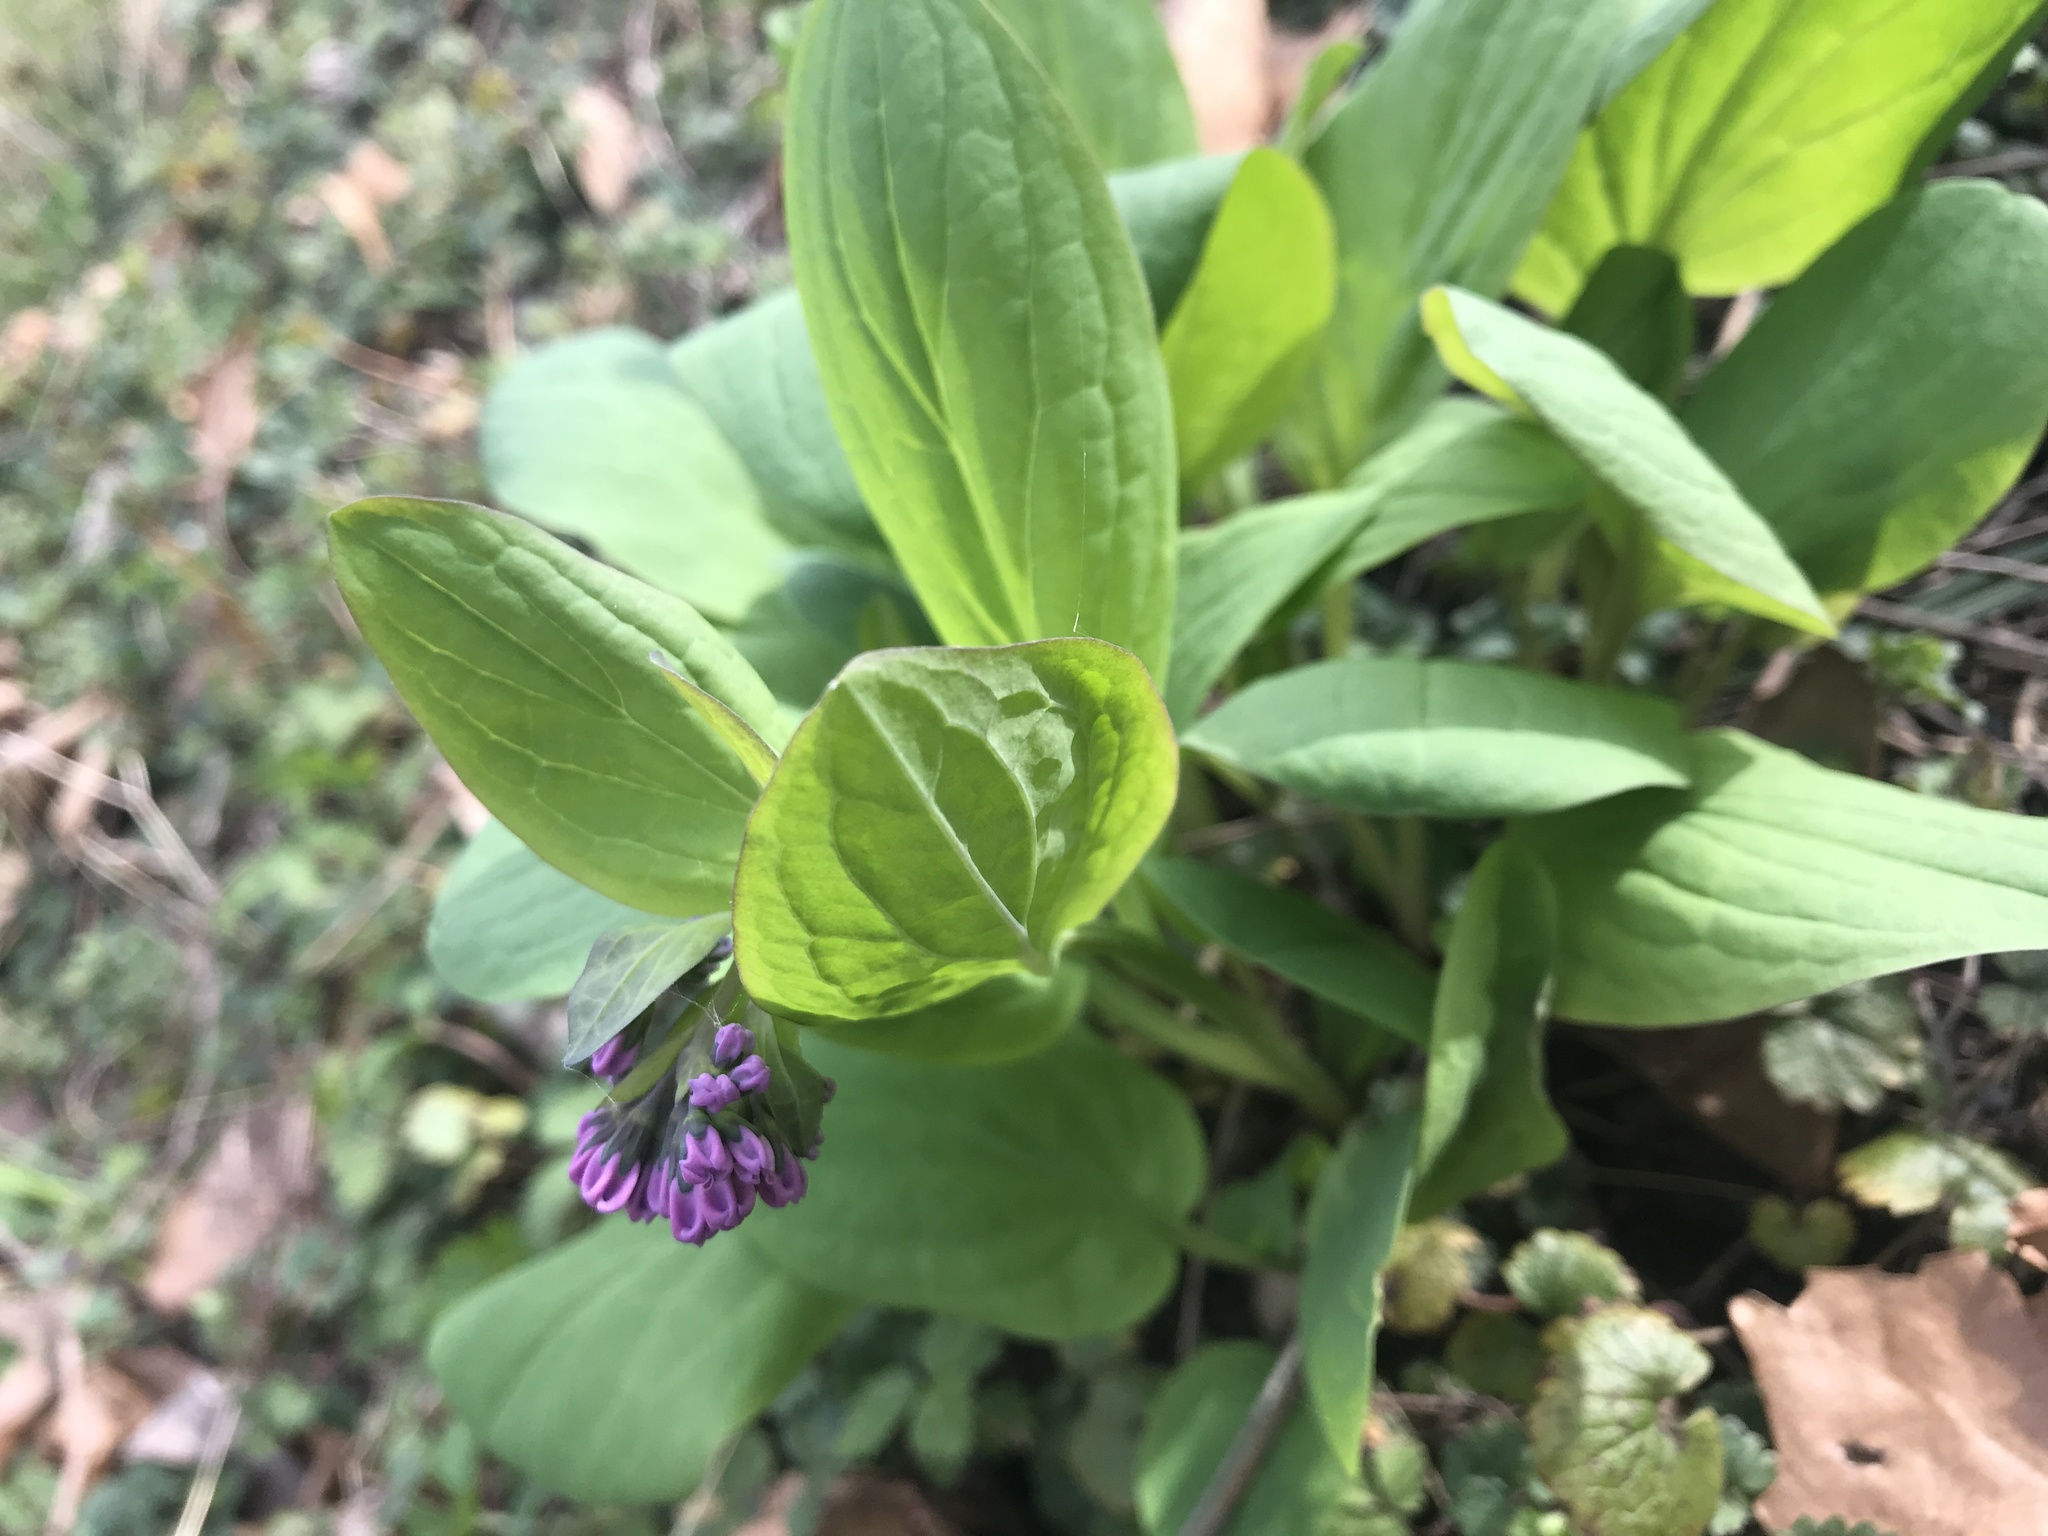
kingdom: Plantae
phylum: Tracheophyta
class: Magnoliopsida
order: Boraginales
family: Boraginaceae
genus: Mertensia
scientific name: Mertensia virginica
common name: Virginia bluebells
